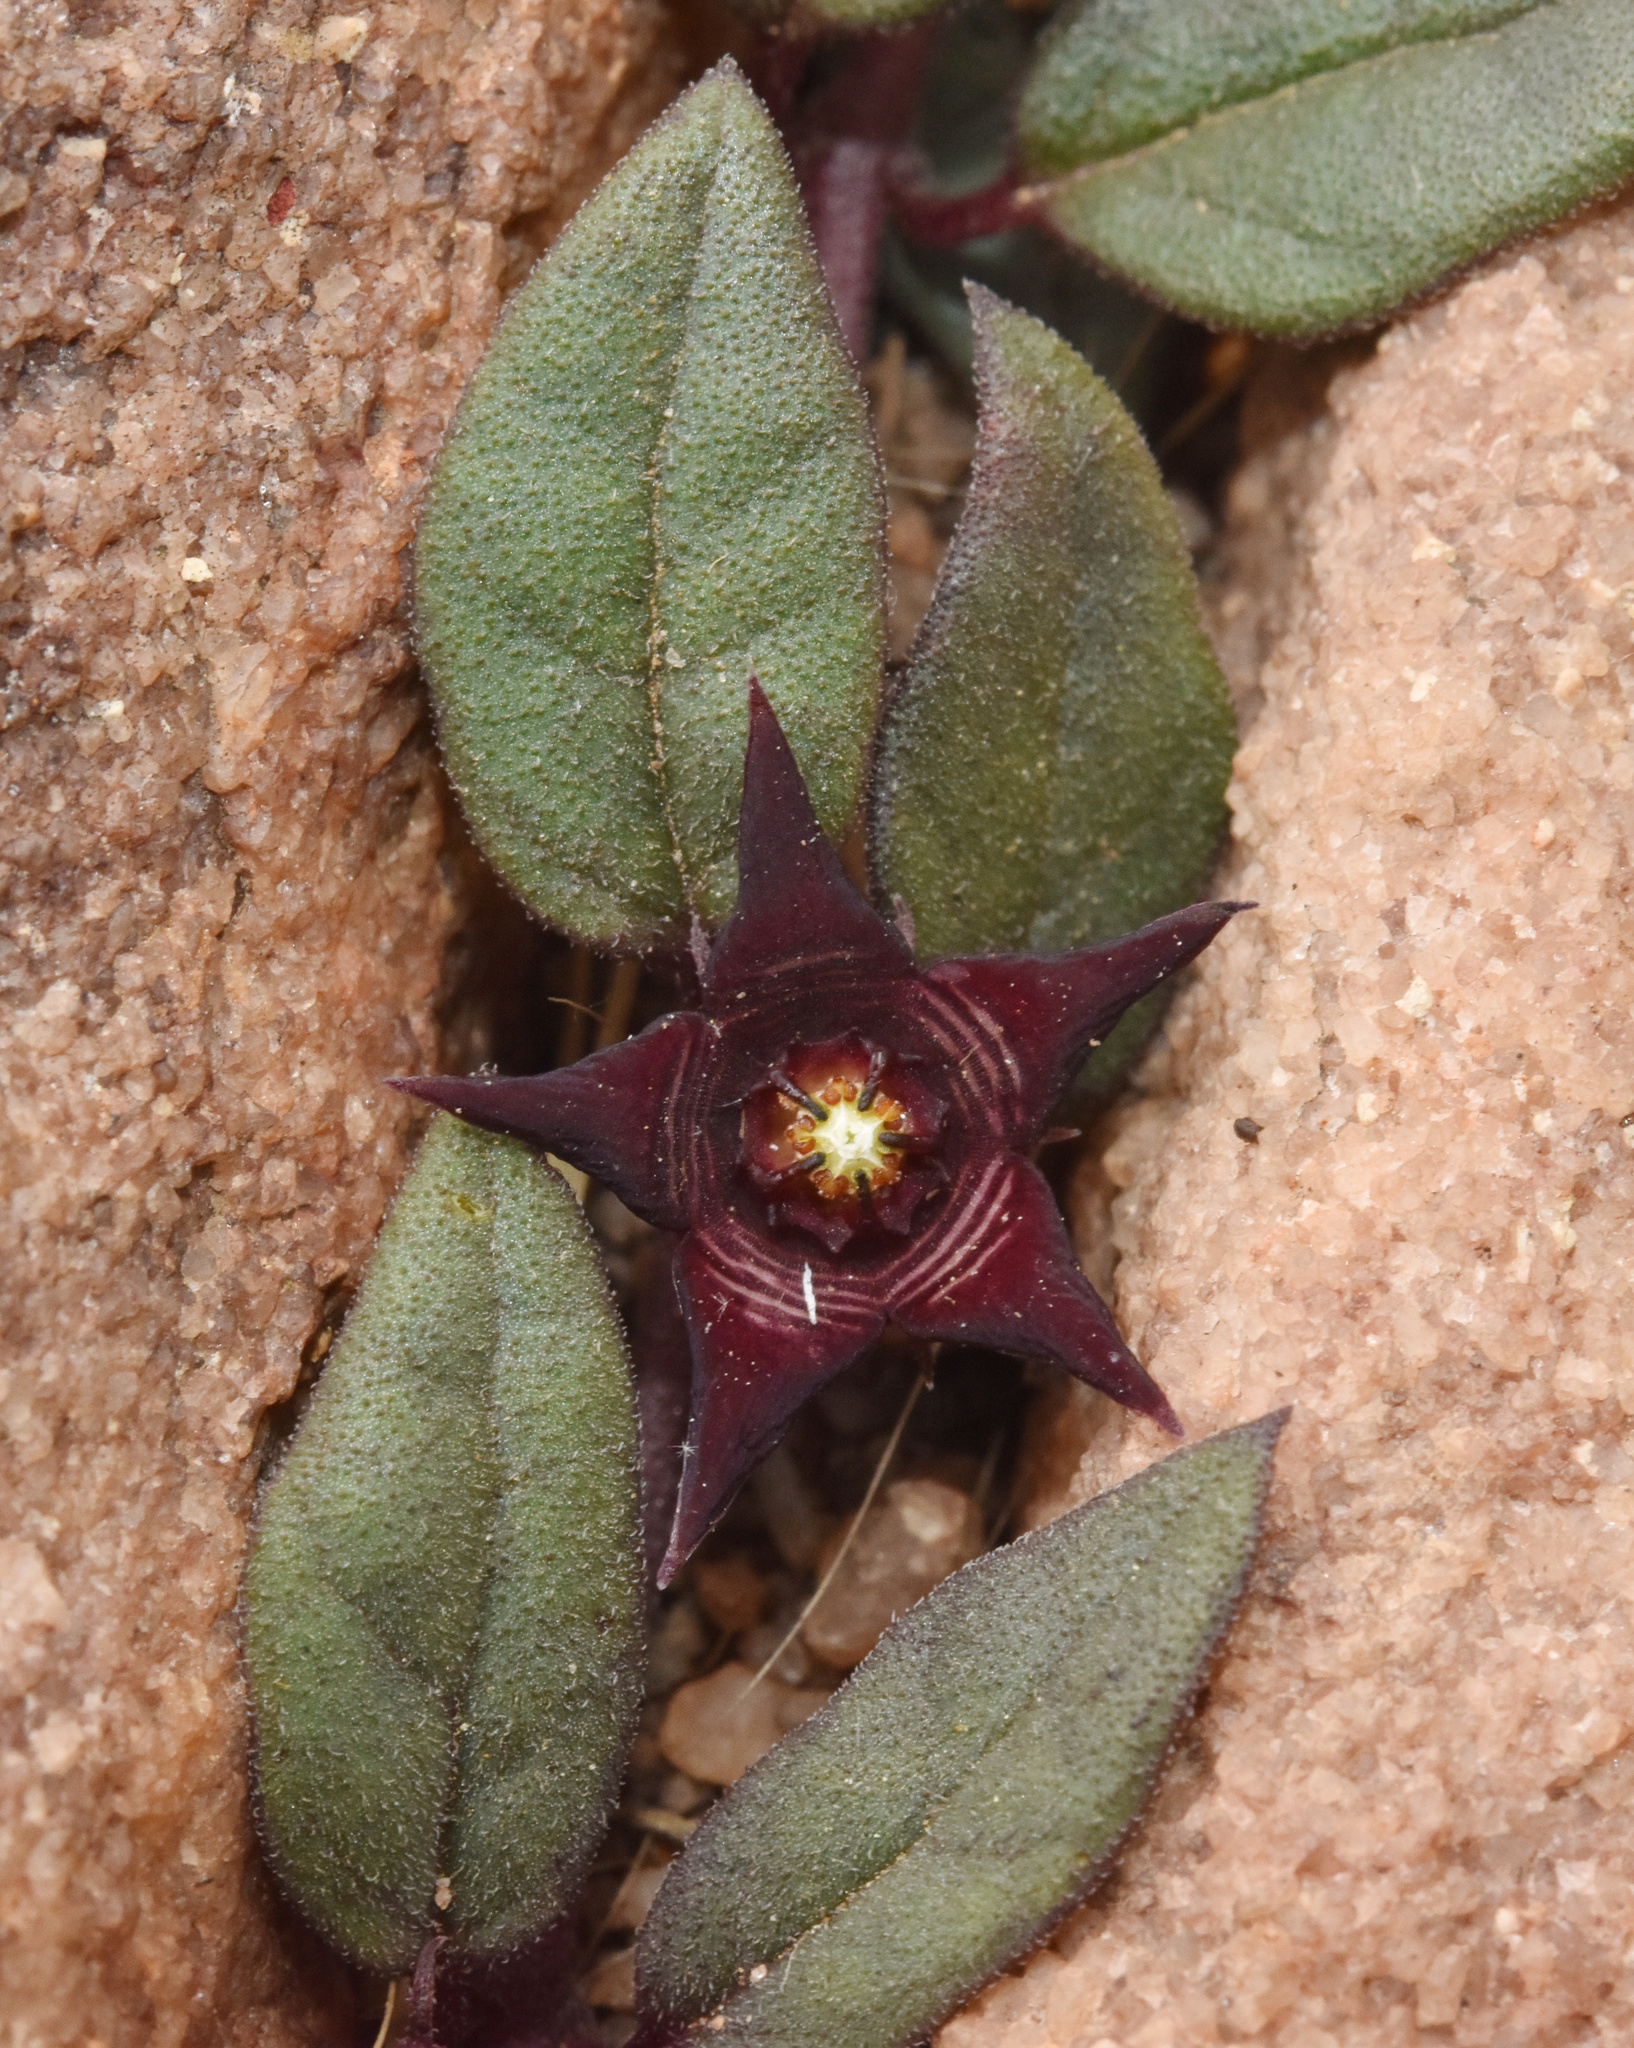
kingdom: Plantae
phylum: Tracheophyta
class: Magnoliopsida
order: Gentianales
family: Apocynaceae
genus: Ceropegia
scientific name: Ceropegia pulchellior
